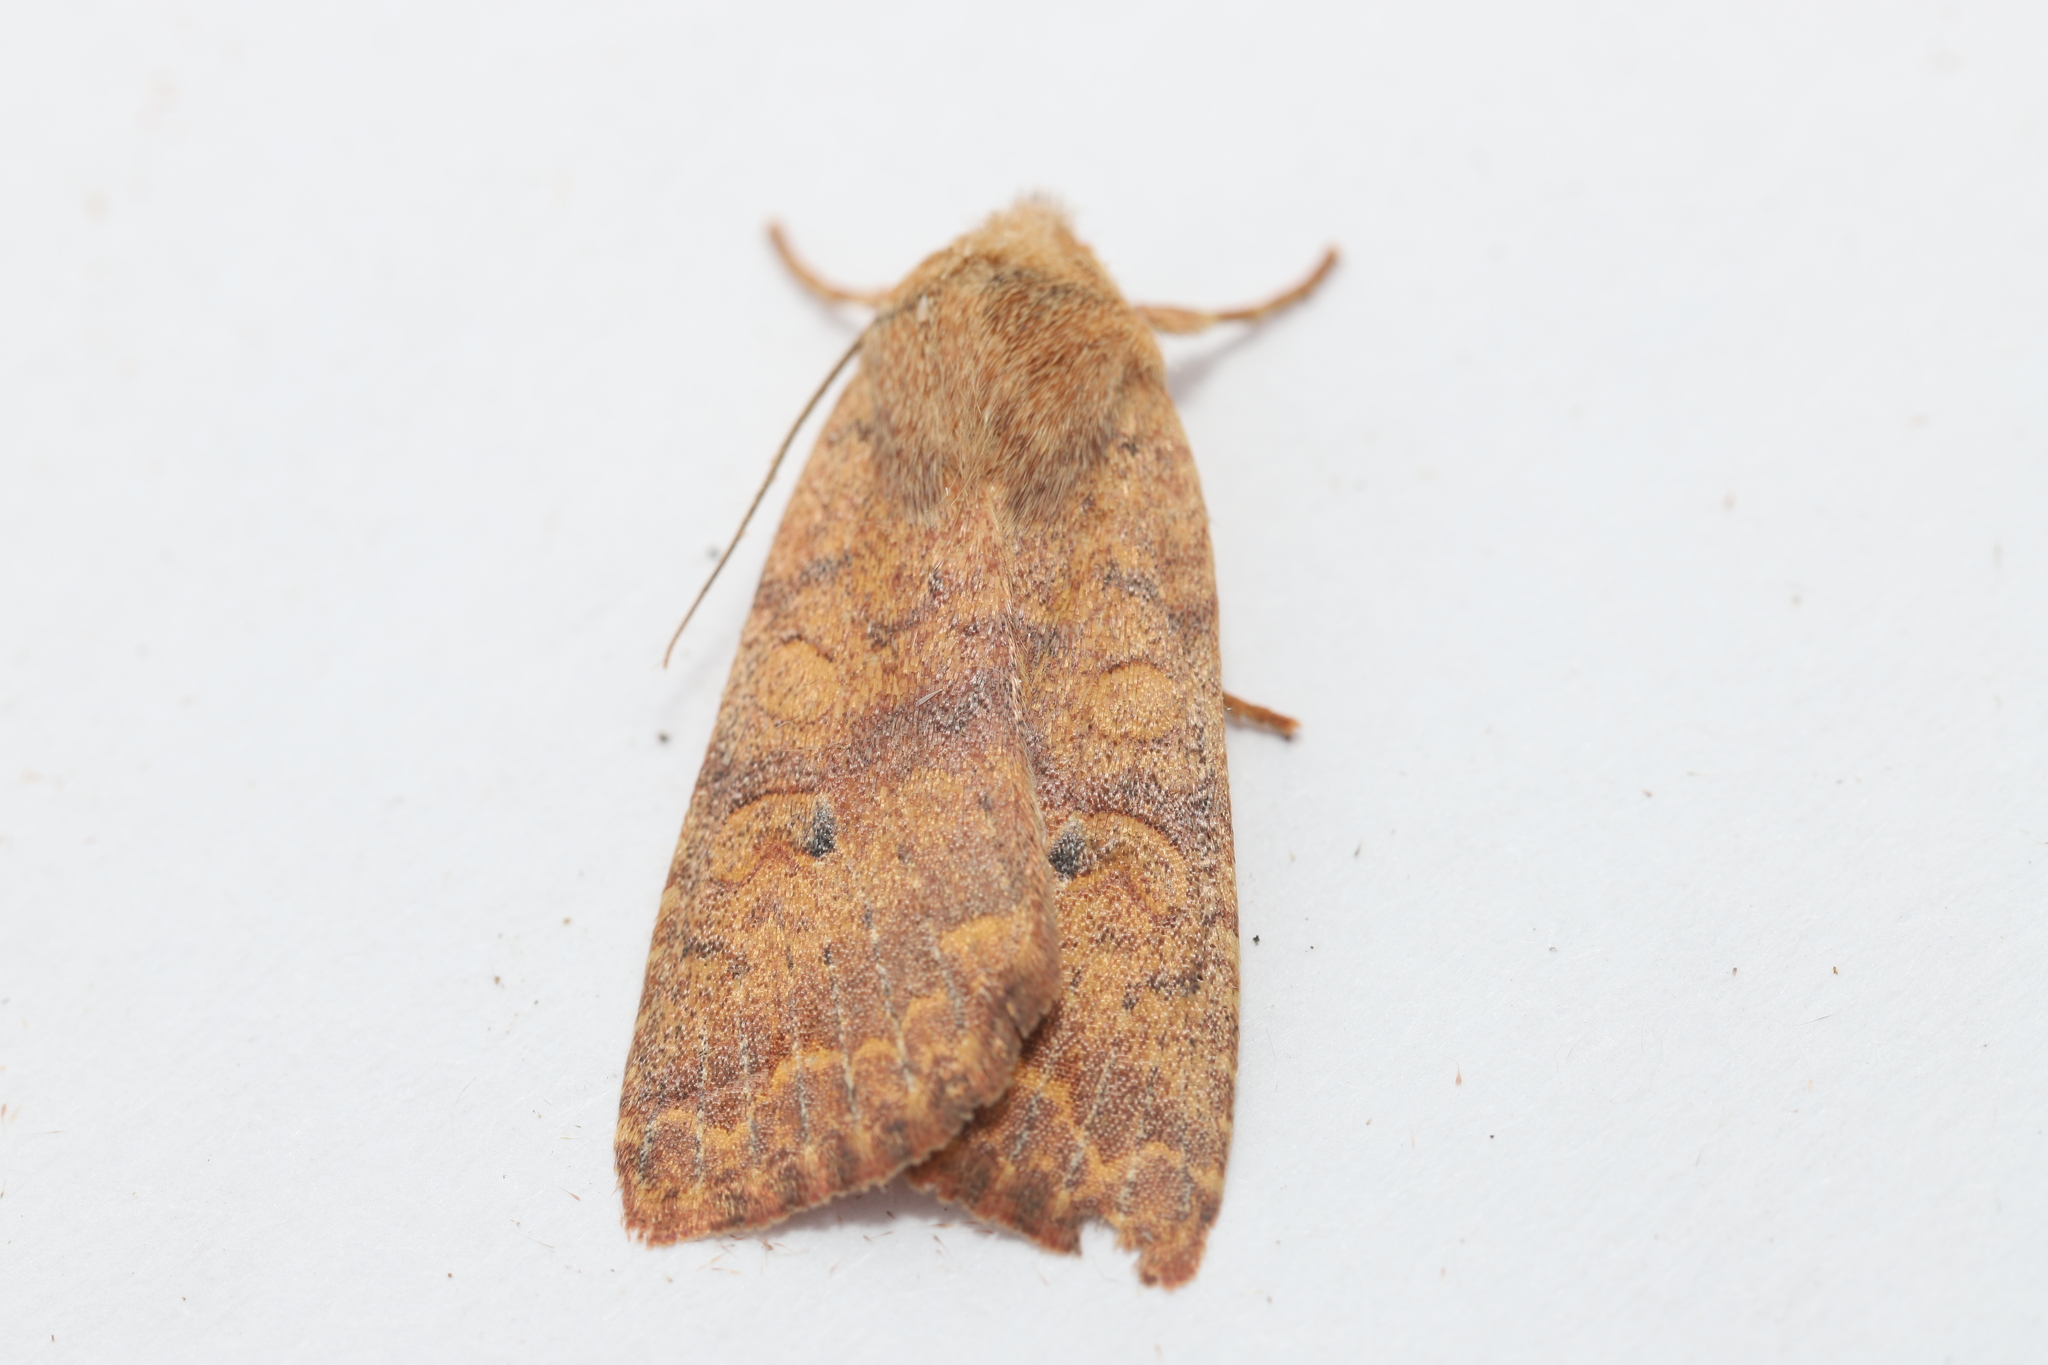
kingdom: Animalia
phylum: Arthropoda
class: Insecta
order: Lepidoptera
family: Noctuidae
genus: Agrochola
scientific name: Agrochola bicolorago
